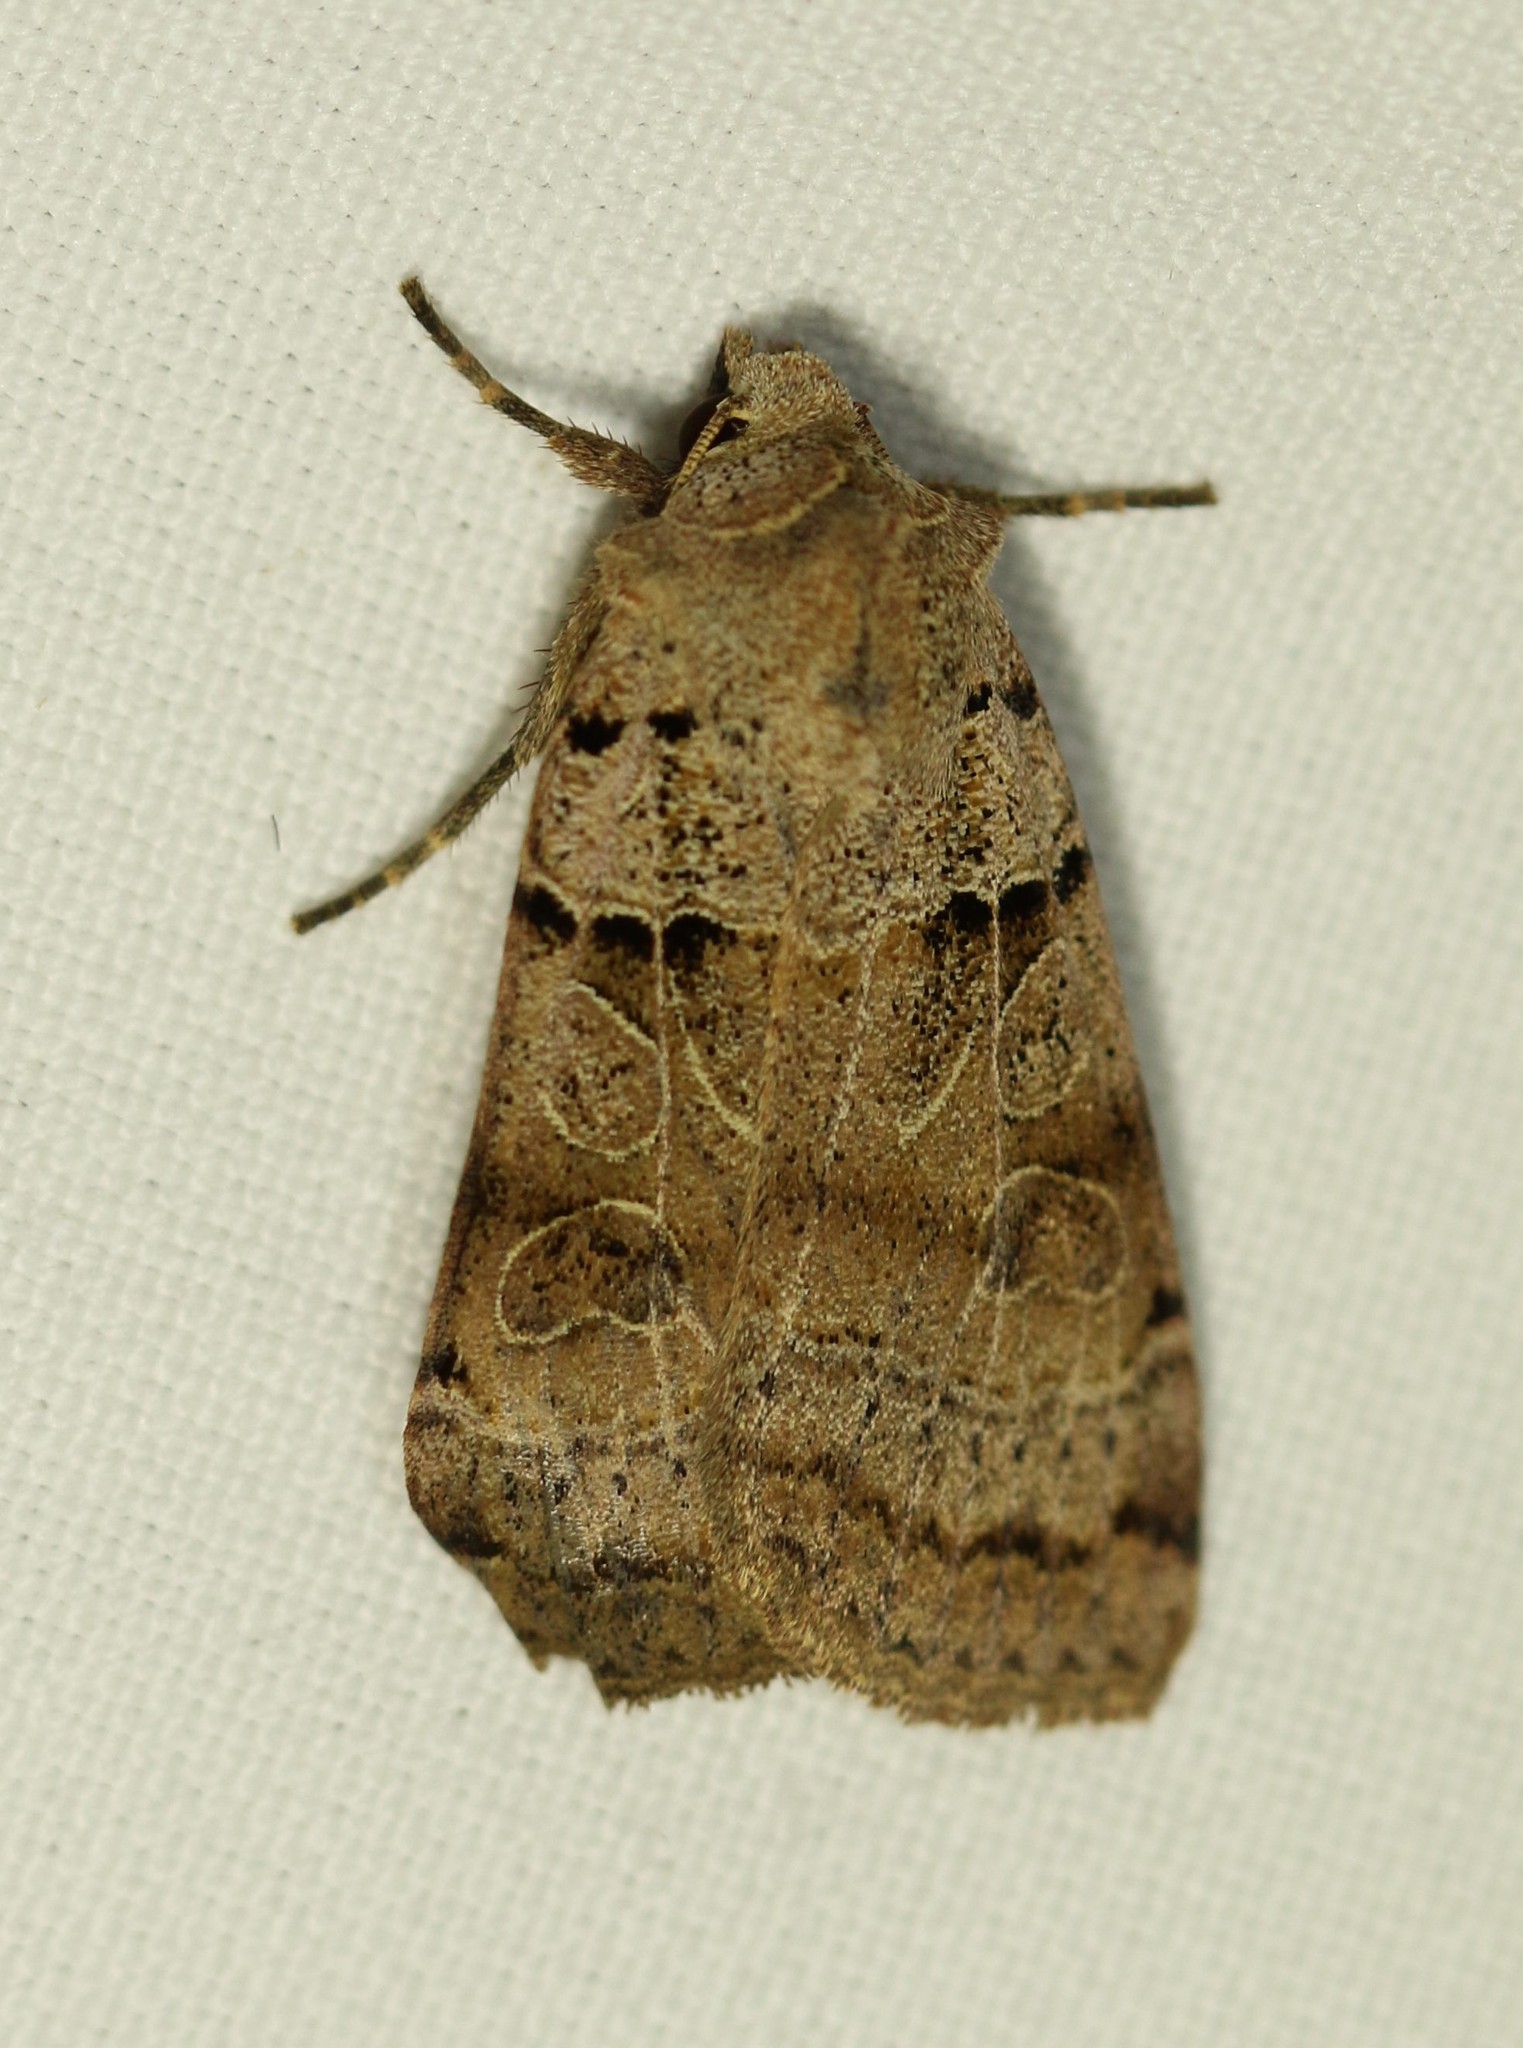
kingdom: Animalia
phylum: Arthropoda
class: Insecta
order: Lepidoptera
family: Noctuidae
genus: Eugnorisma
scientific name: Eugnorisma depuncta
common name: Plain clay
